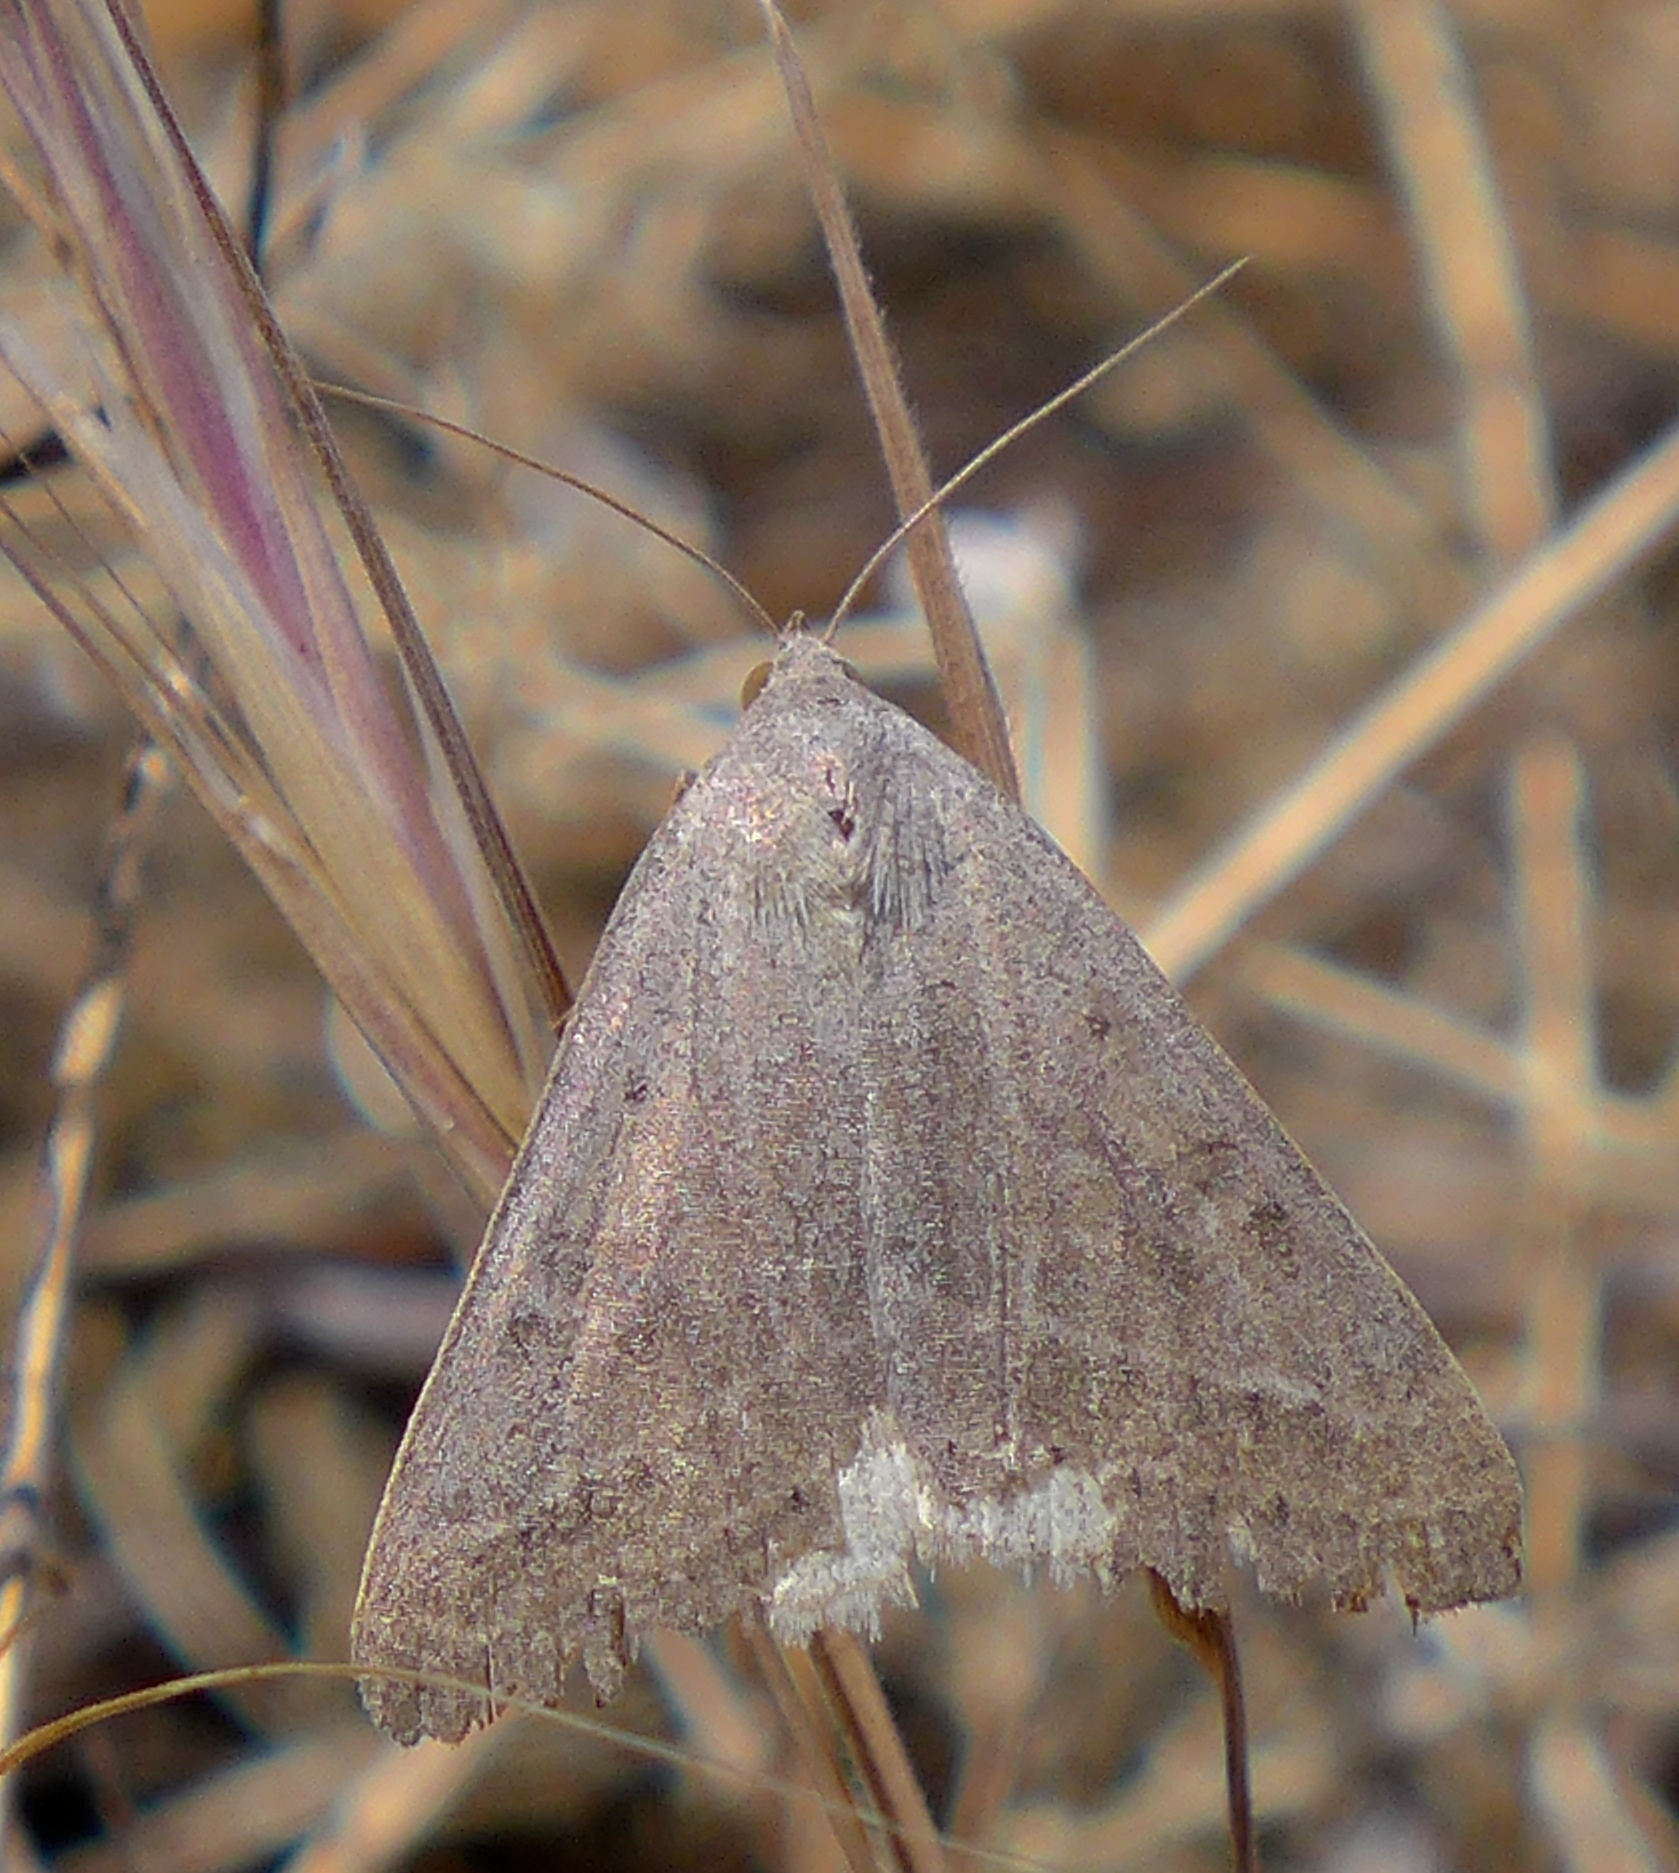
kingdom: Animalia
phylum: Arthropoda
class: Insecta
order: Lepidoptera
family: Erebidae
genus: Caenurgia
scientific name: Caenurgia togataria
